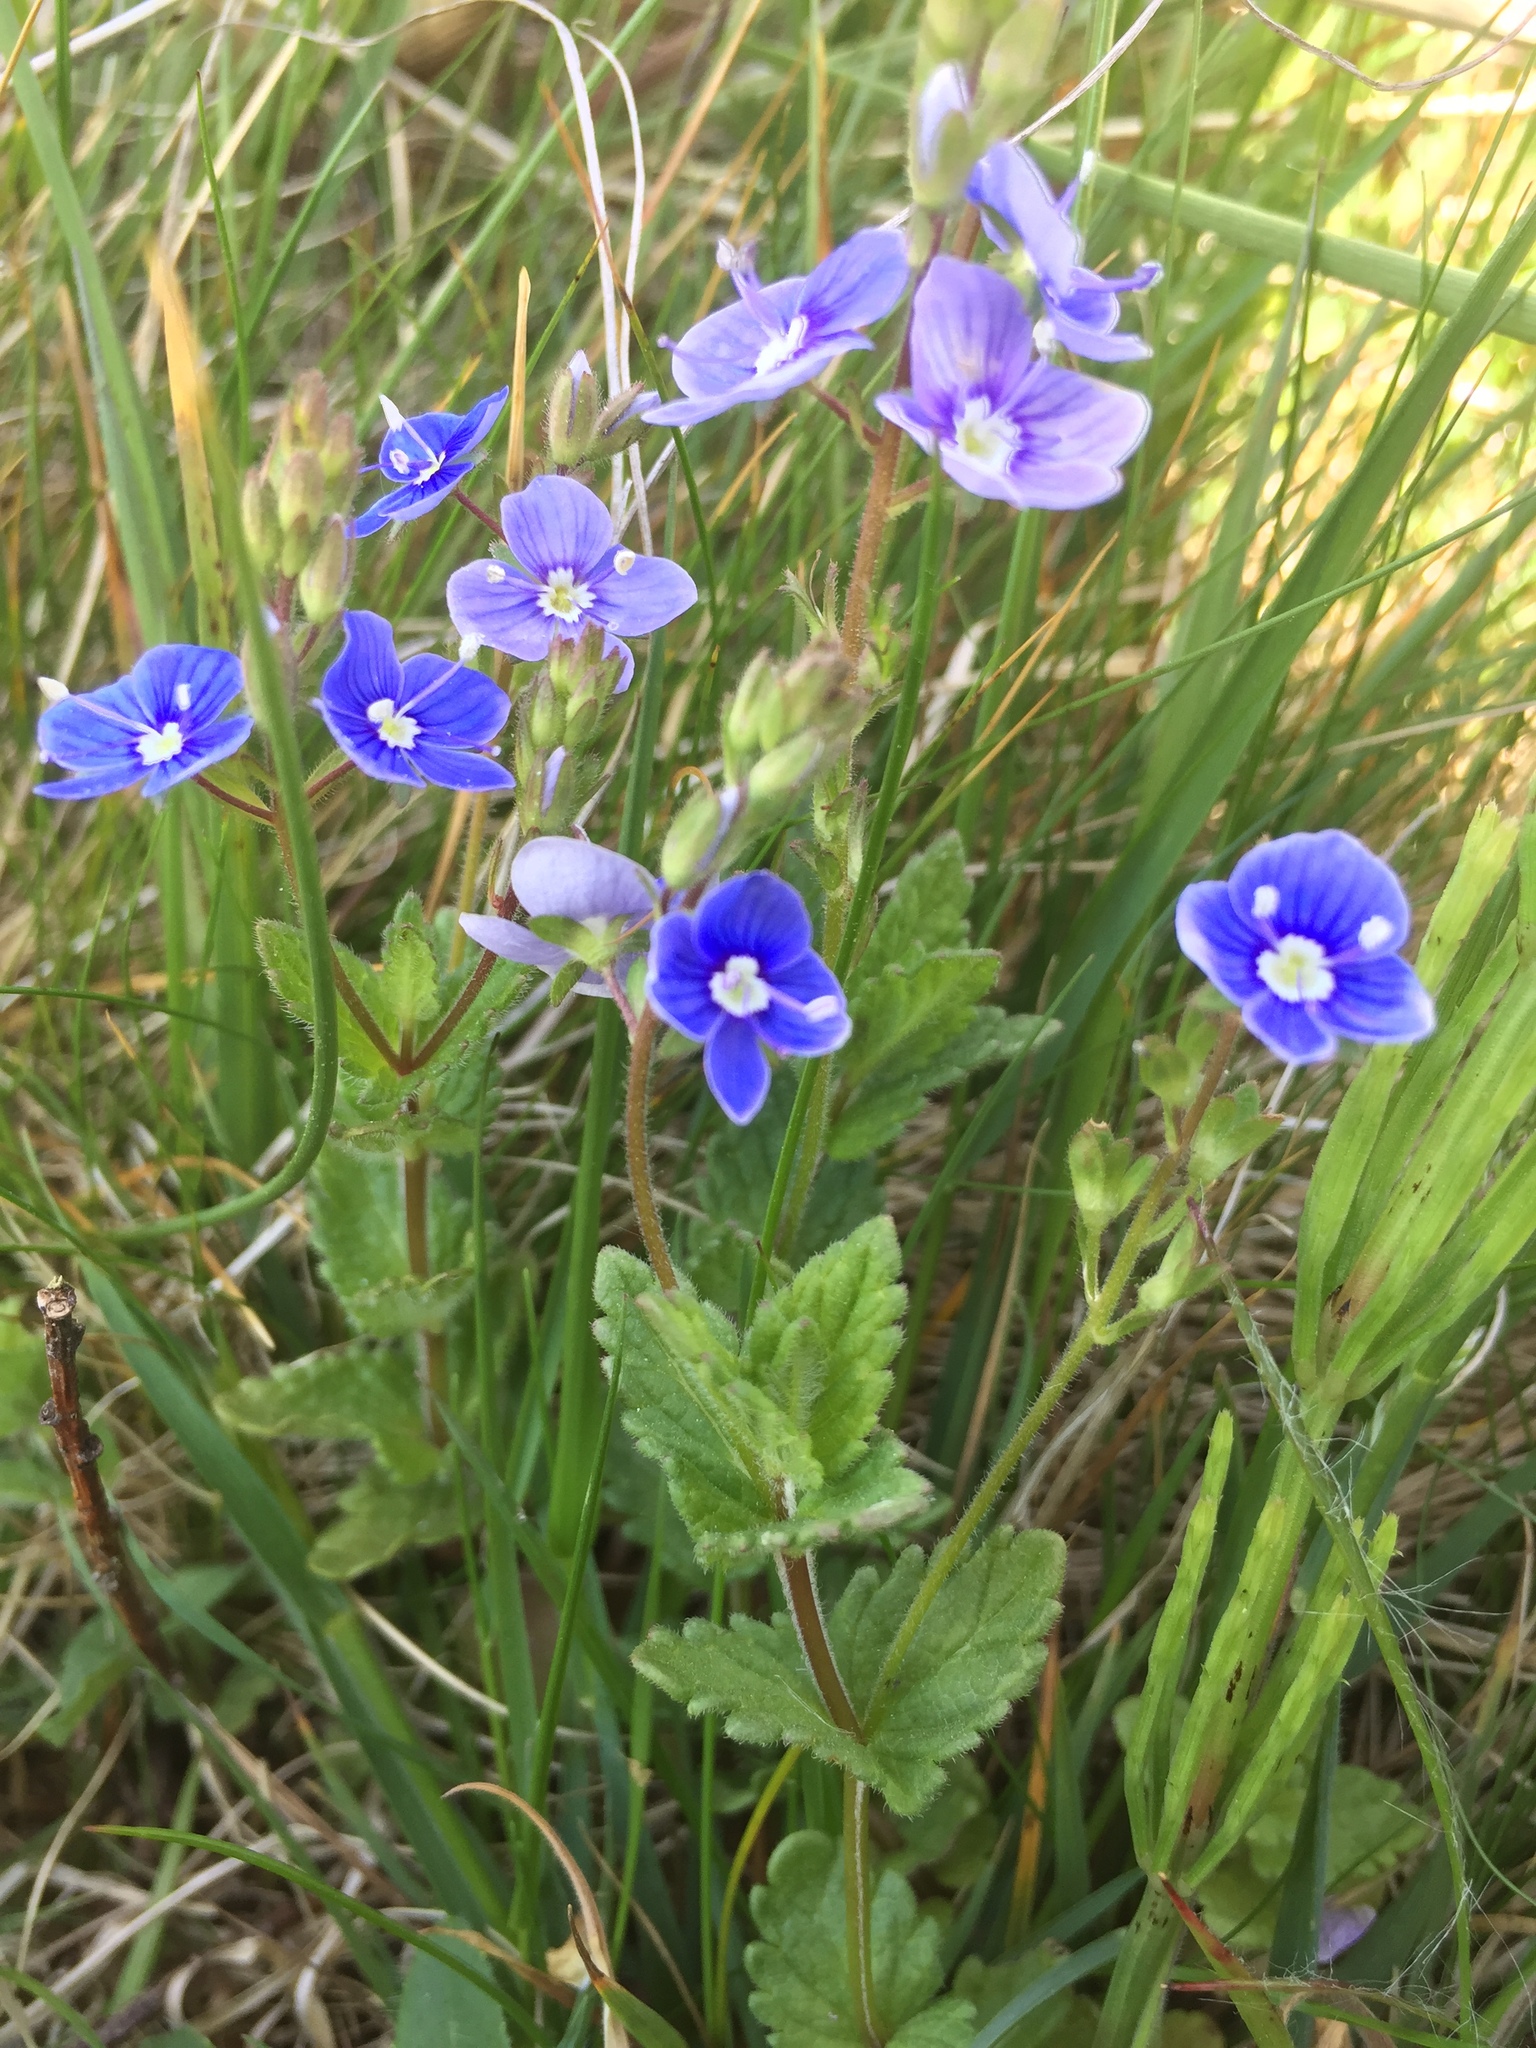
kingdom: Plantae
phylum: Tracheophyta
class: Magnoliopsida
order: Lamiales
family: Plantaginaceae
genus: Veronica
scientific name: Veronica chamaedrys
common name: Germander speedwell
